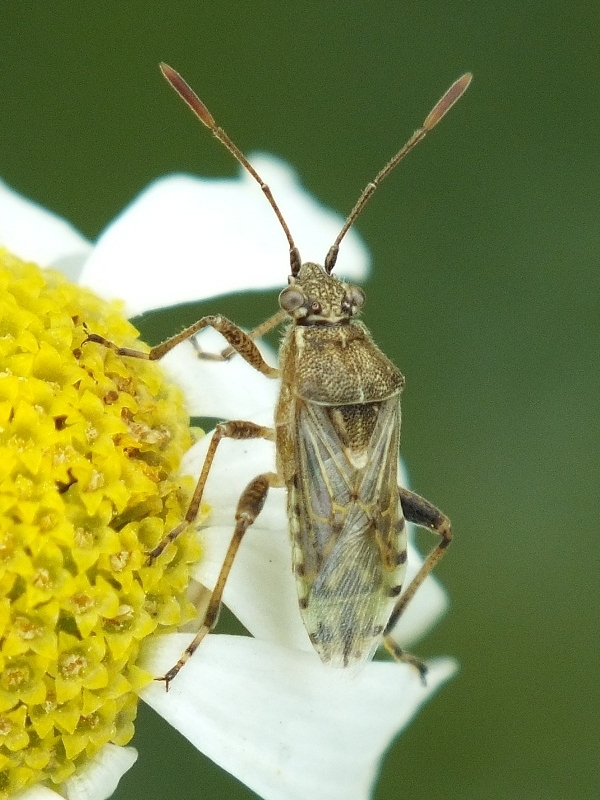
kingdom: Animalia
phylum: Arthropoda
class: Insecta
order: Hemiptera
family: Rhopalidae
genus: Stictopleurus
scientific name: Stictopleurus punctatonervosus
